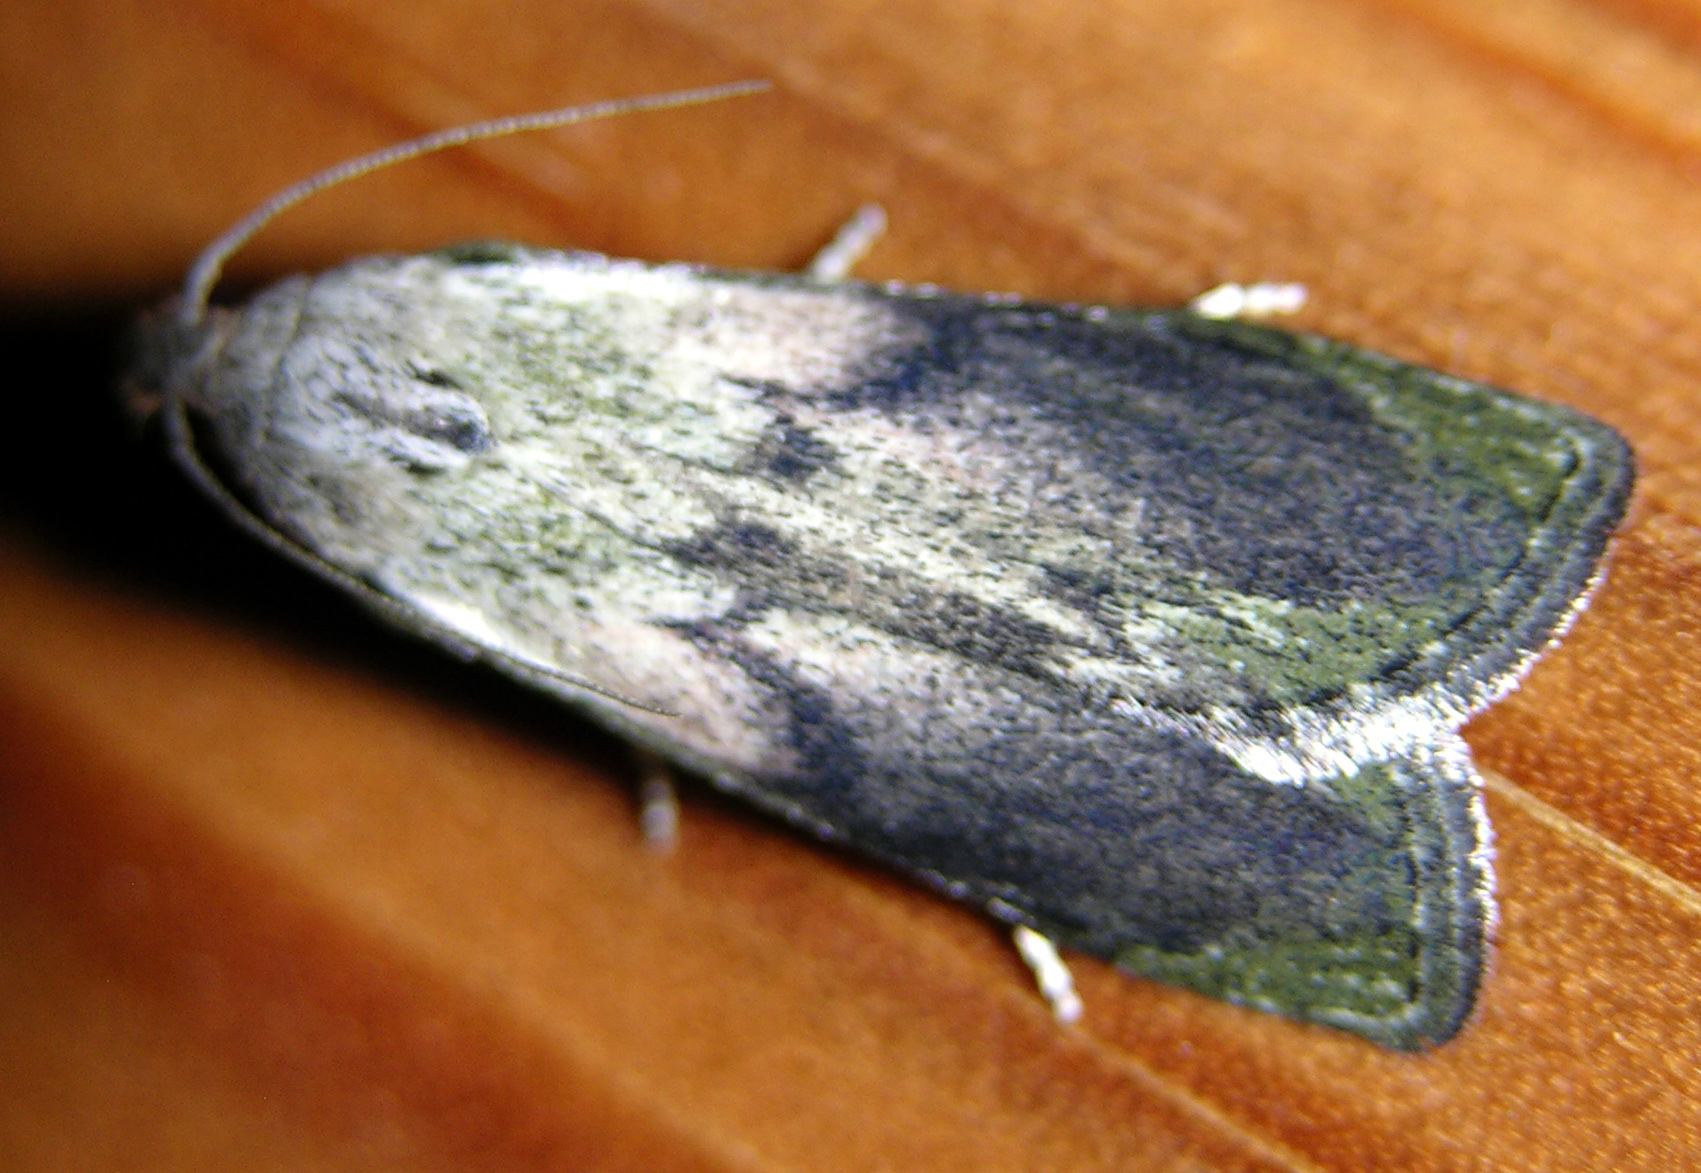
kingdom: Animalia
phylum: Arthropoda
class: Insecta
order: Lepidoptera
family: Pyralidae
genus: Aphomia
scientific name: Aphomia sociella
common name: Bee moth
